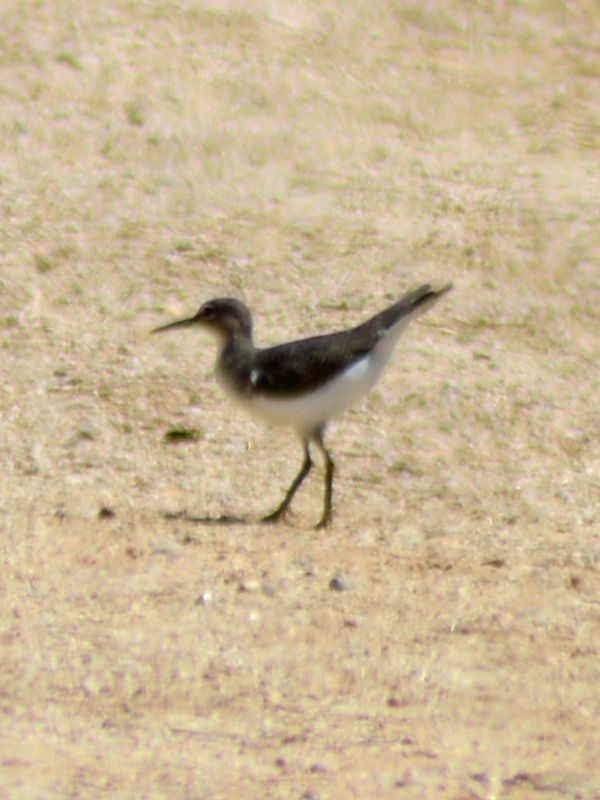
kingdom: Animalia
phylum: Chordata
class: Aves
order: Charadriiformes
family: Scolopacidae
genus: Actitis
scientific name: Actitis macularius
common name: Spotted sandpiper
